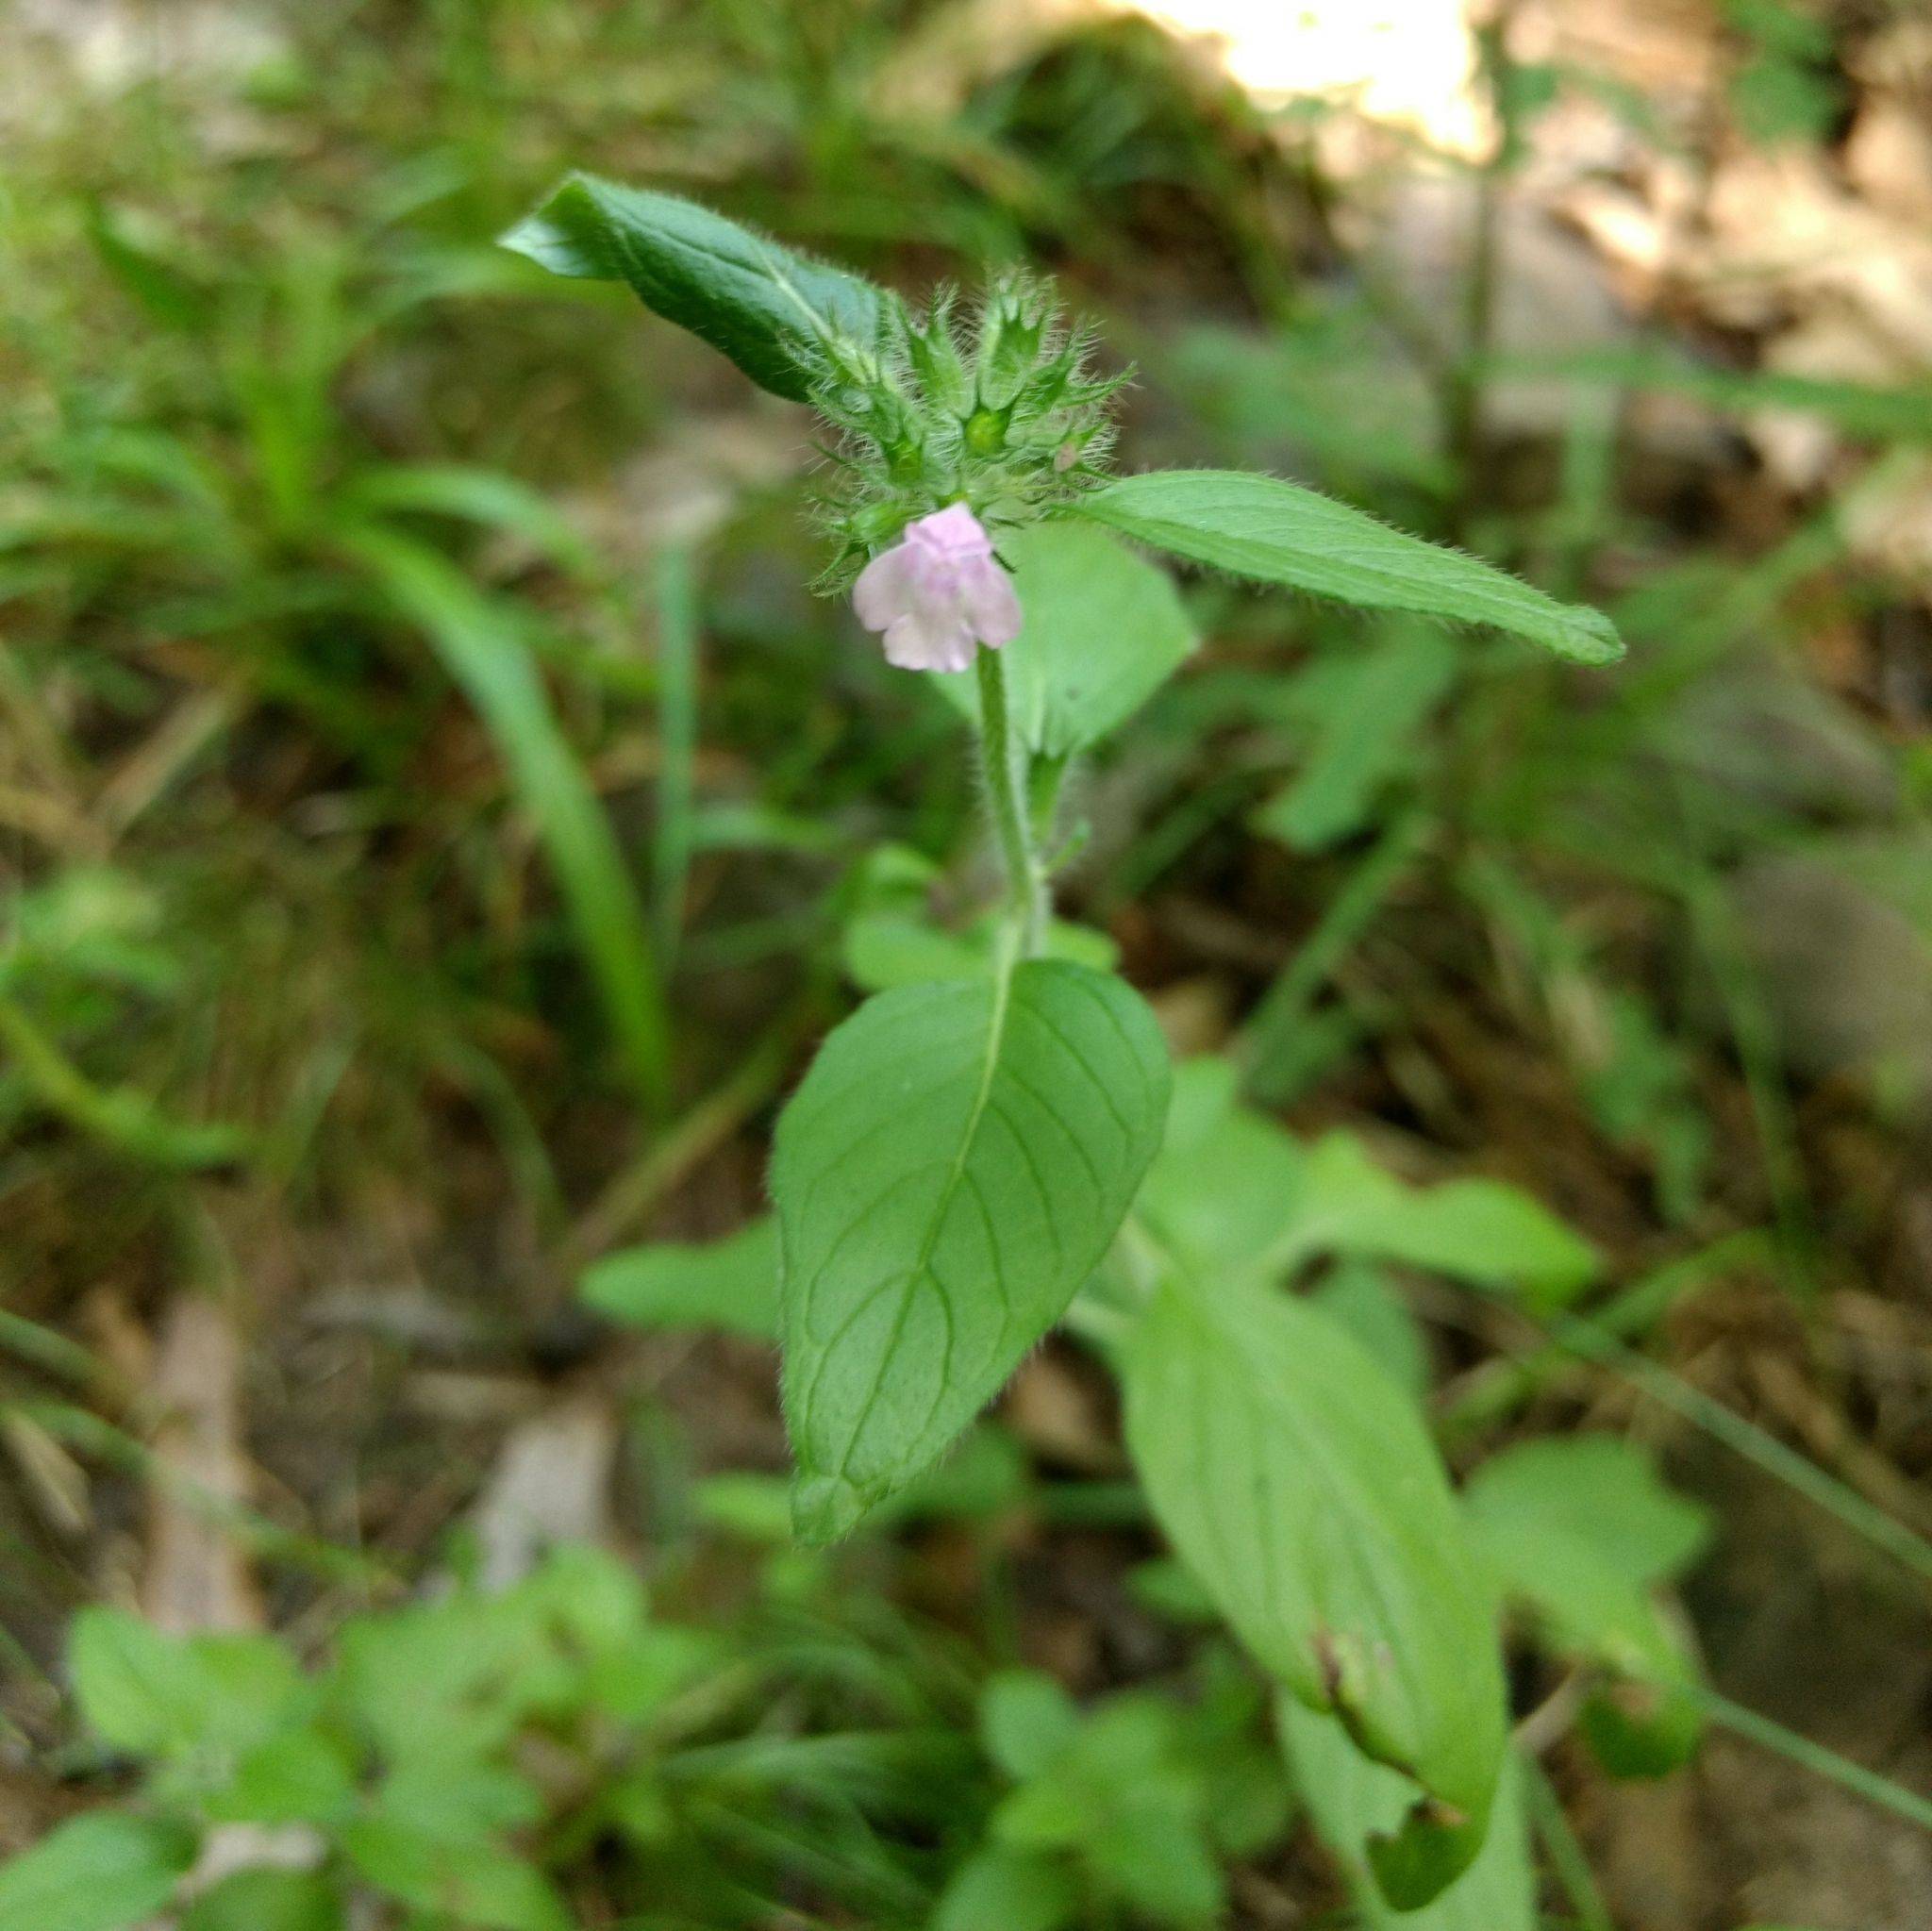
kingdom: Plantae
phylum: Tracheophyta
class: Magnoliopsida
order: Lamiales
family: Lamiaceae
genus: Clinopodium
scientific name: Clinopodium vulgare
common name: Wild basil
